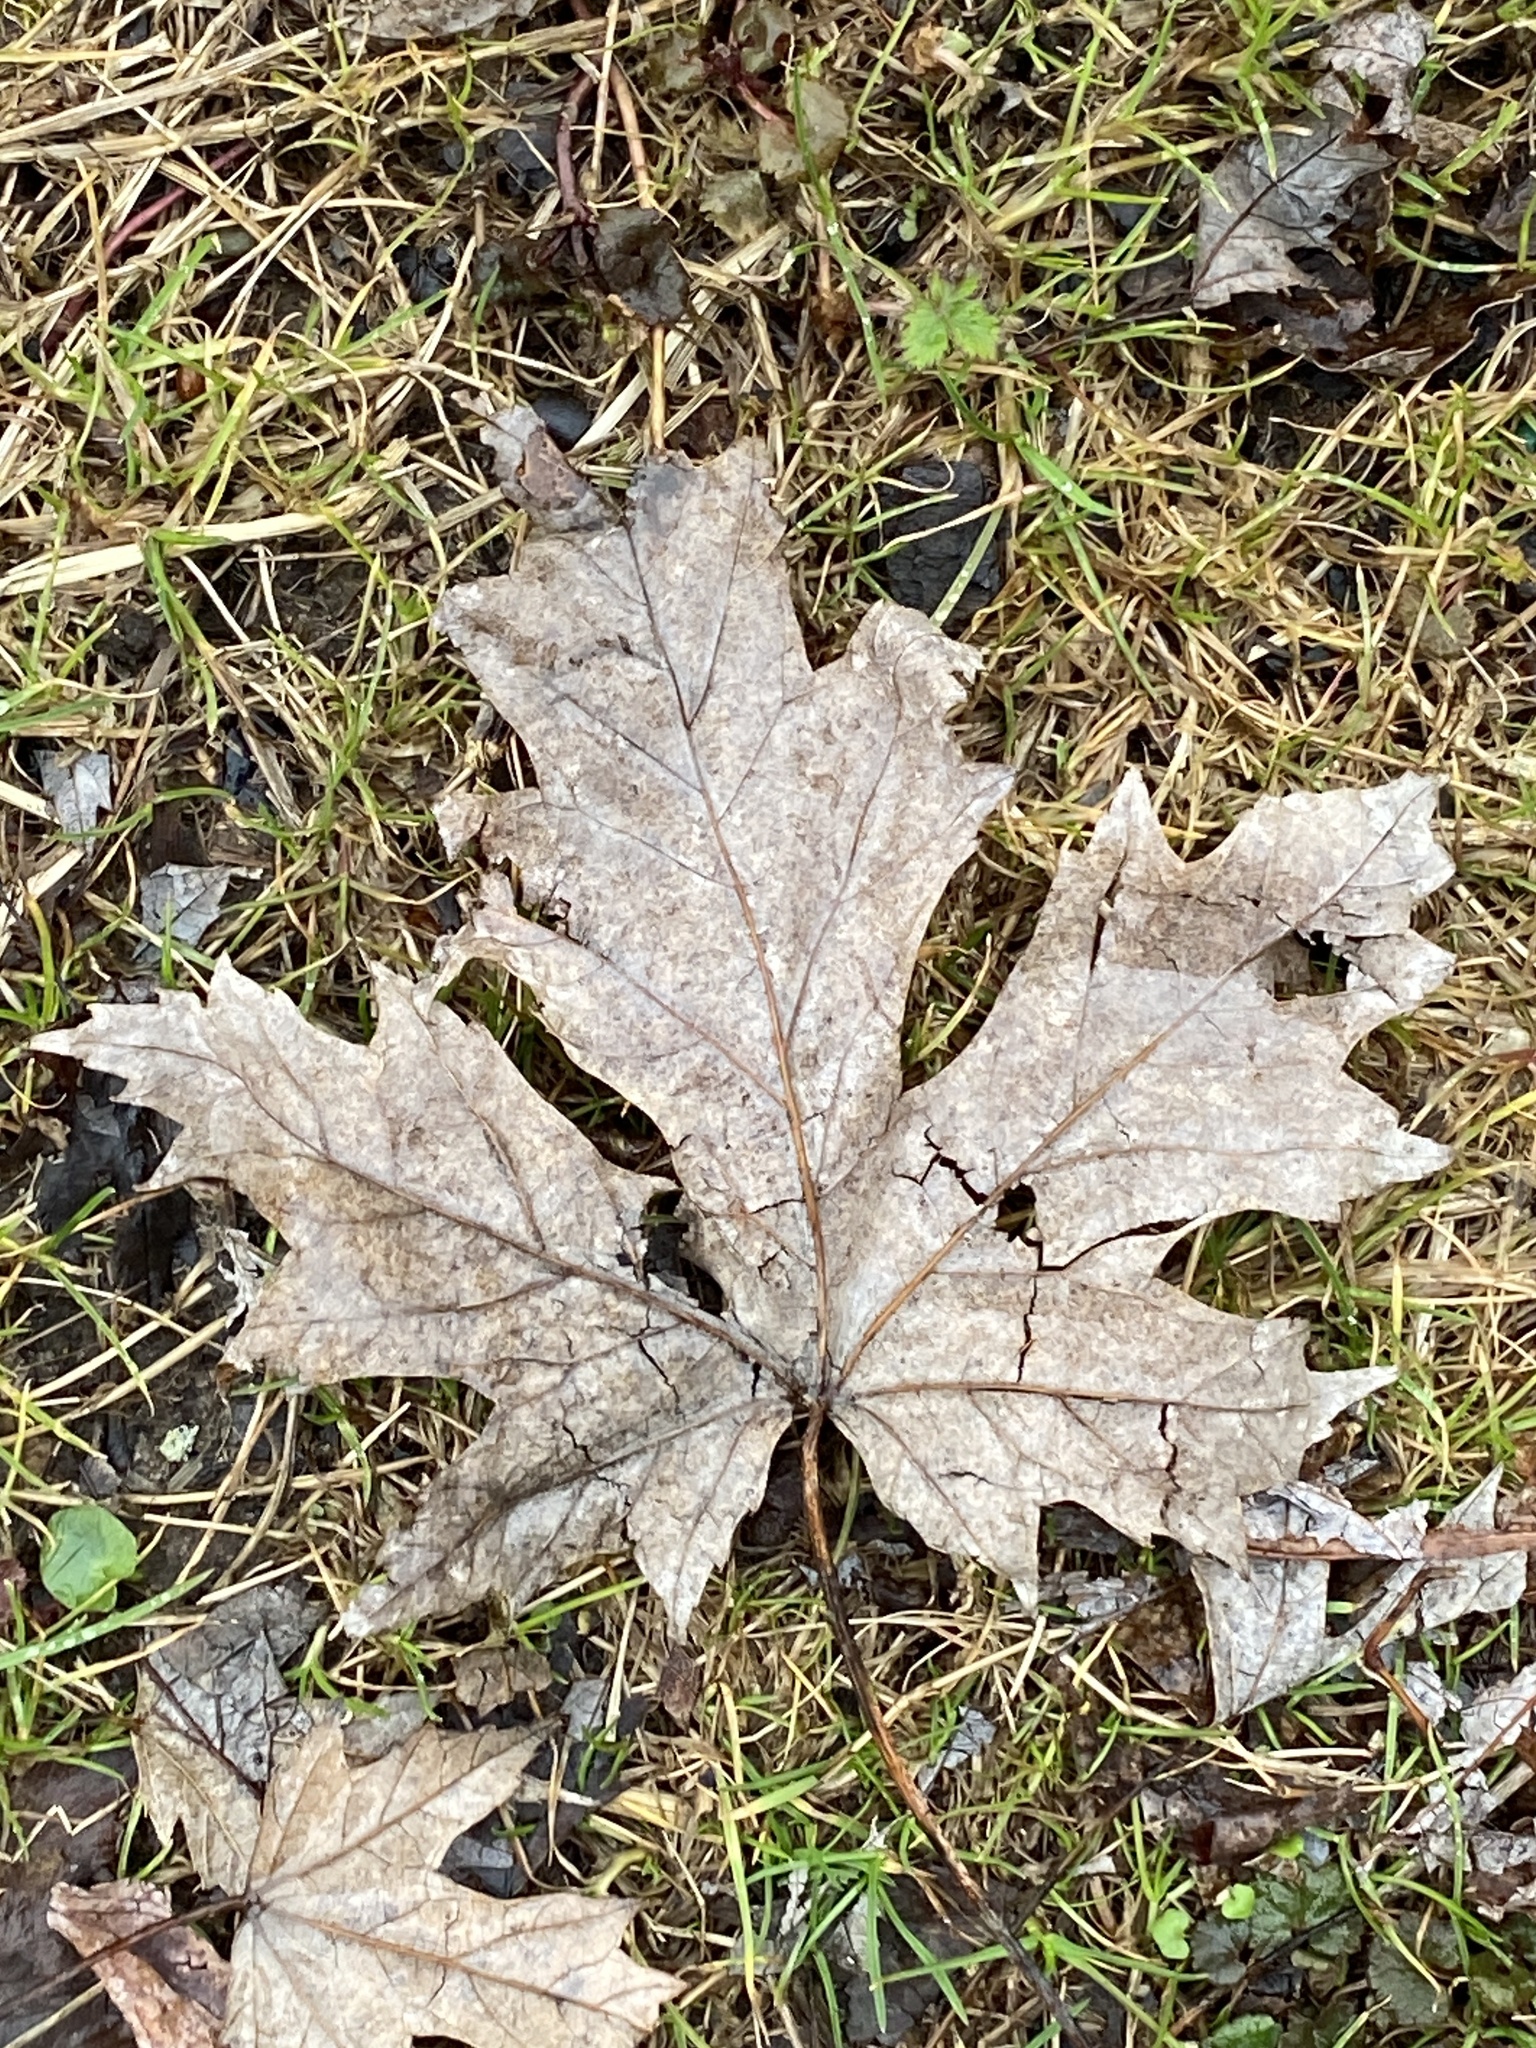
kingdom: Plantae
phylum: Tracheophyta
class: Magnoliopsida
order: Sapindales
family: Sapindaceae
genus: Acer
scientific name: Acer saccharinum
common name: Silver maple
